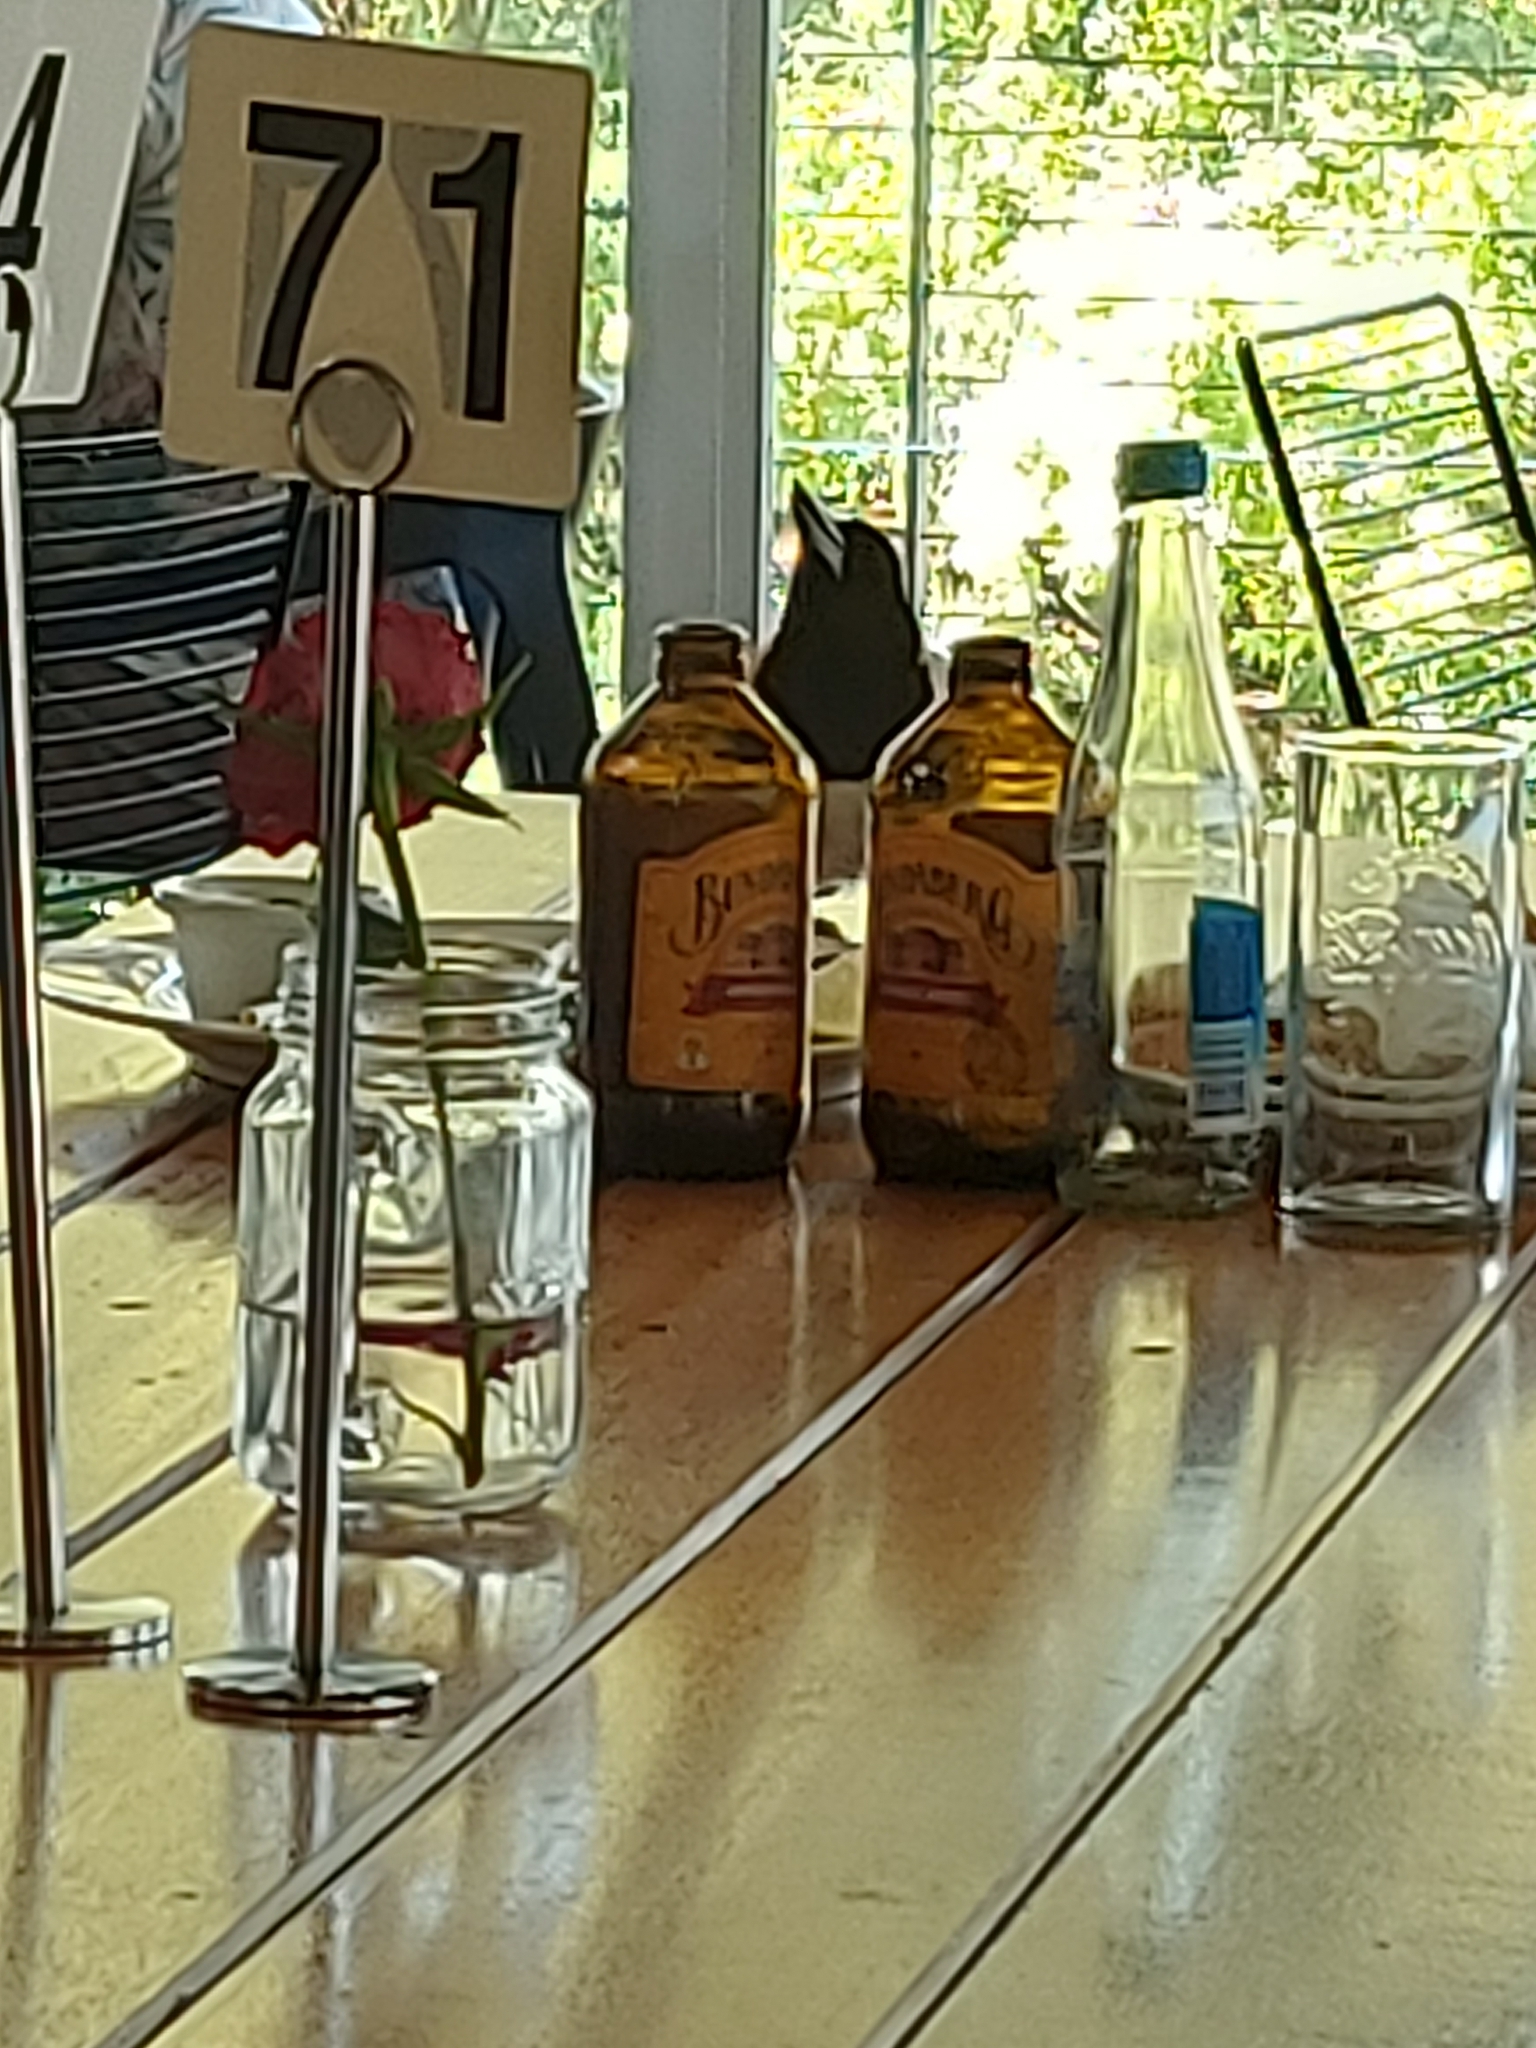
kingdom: Animalia
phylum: Chordata
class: Aves
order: Passeriformes
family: Cracticidae
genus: Cracticus
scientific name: Cracticus nigrogularis
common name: Pied butcherbird
